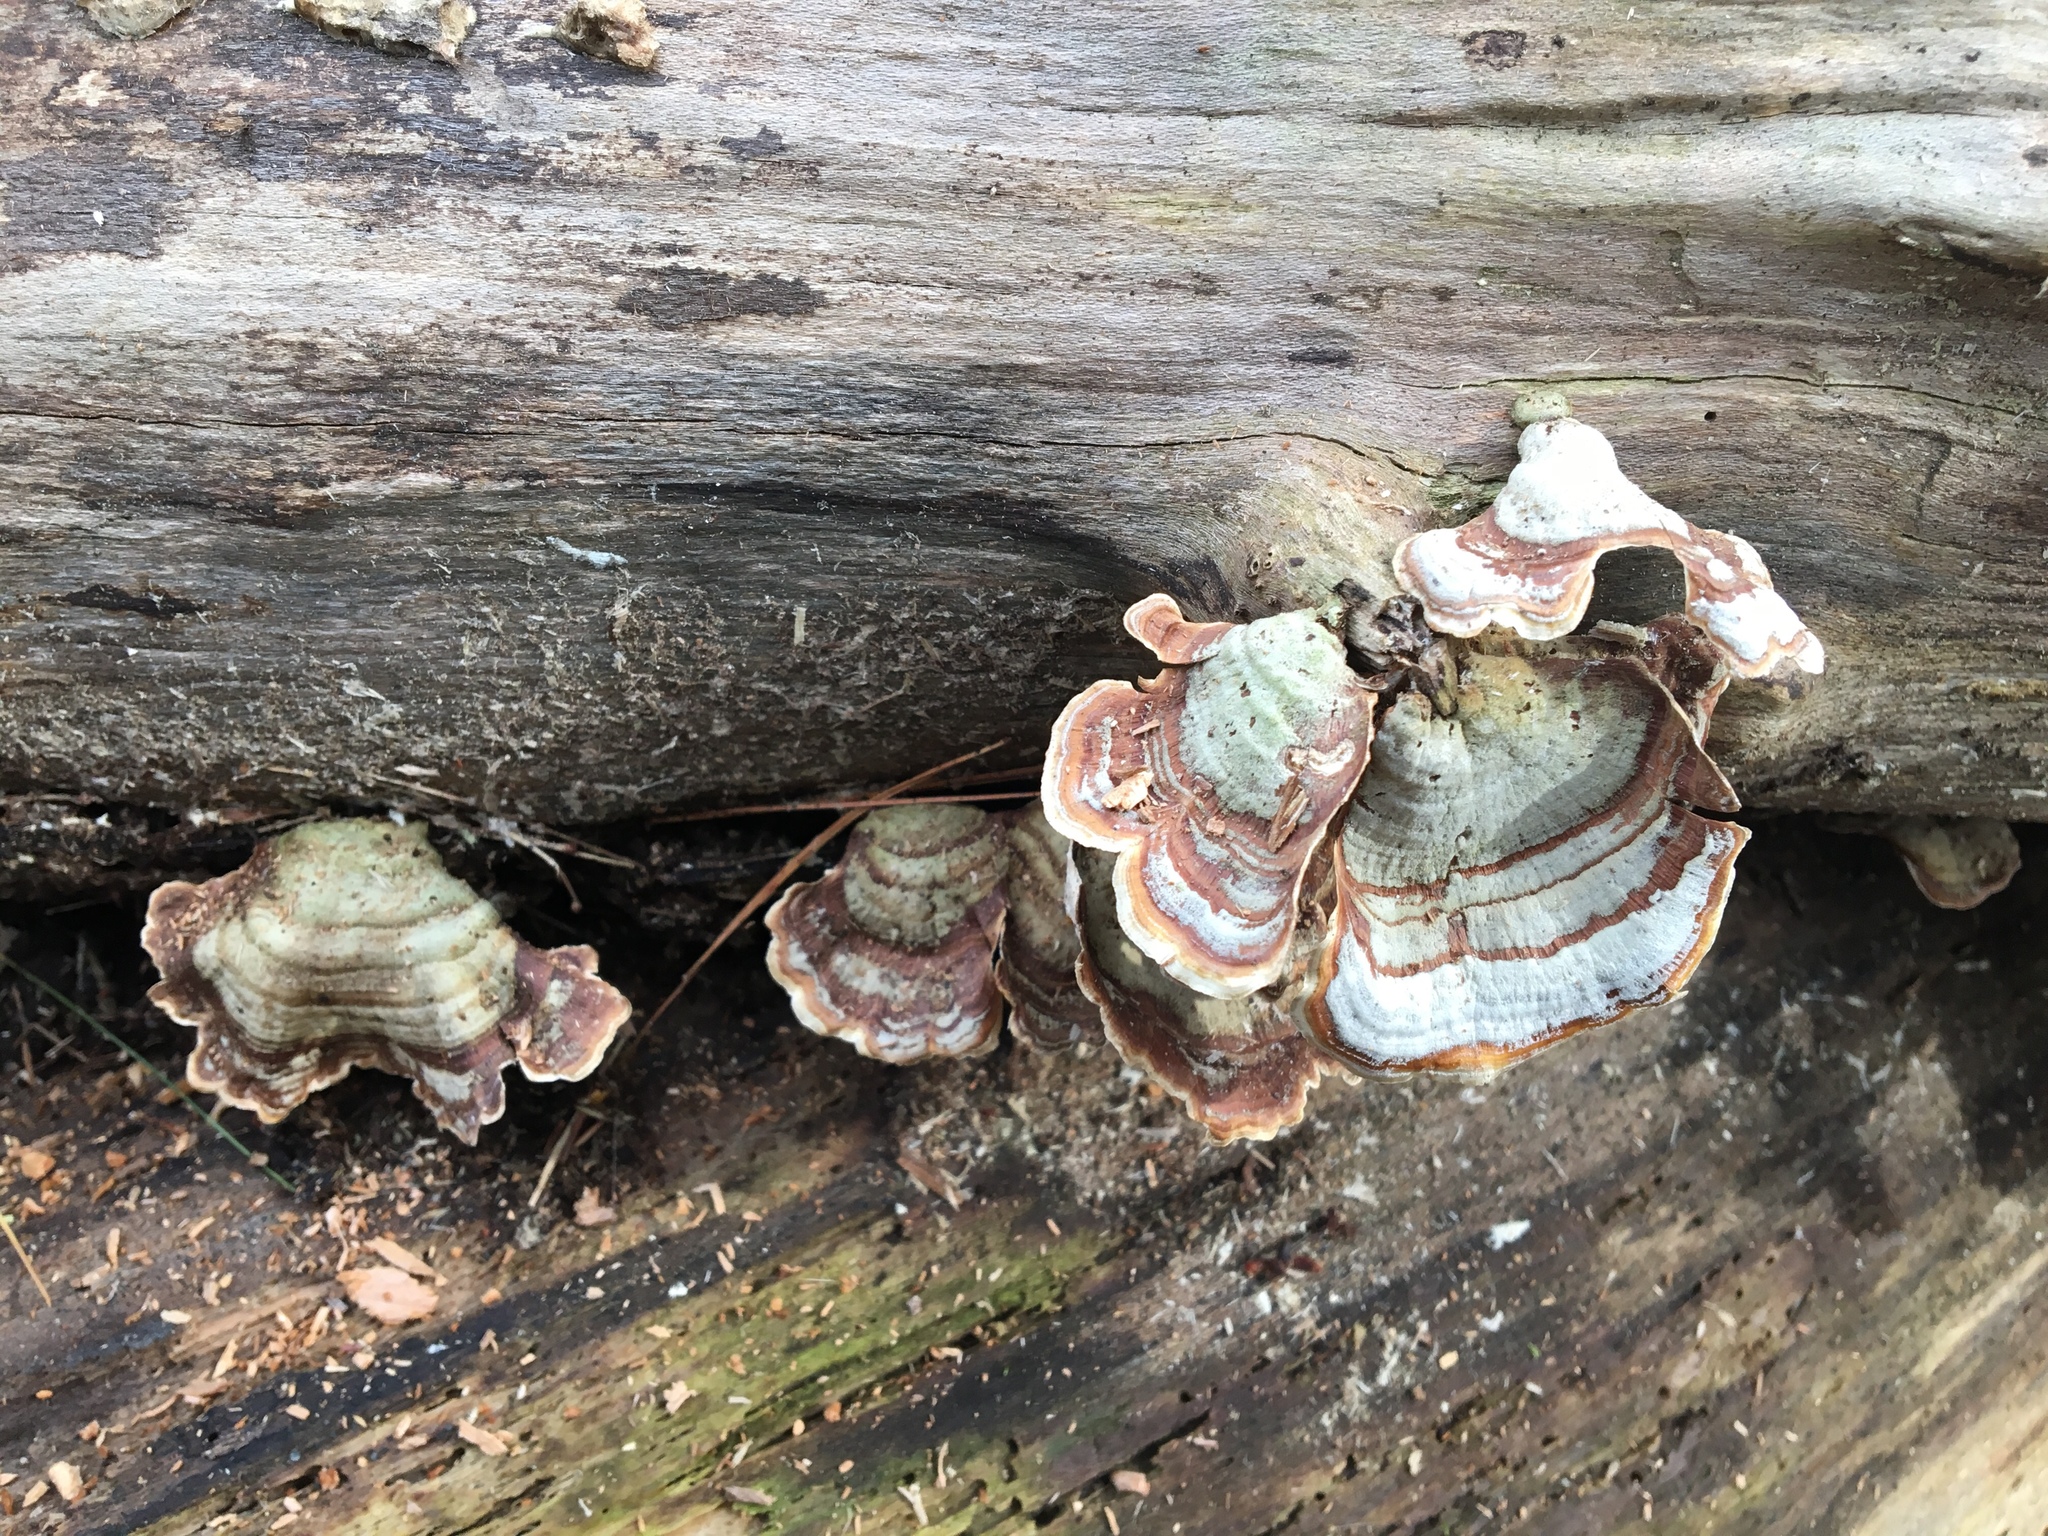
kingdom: Fungi
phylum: Basidiomycota
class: Agaricomycetes
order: Polyporales
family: Polyporaceae
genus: Trametes
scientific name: Trametes versicolor
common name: Turkeytail
